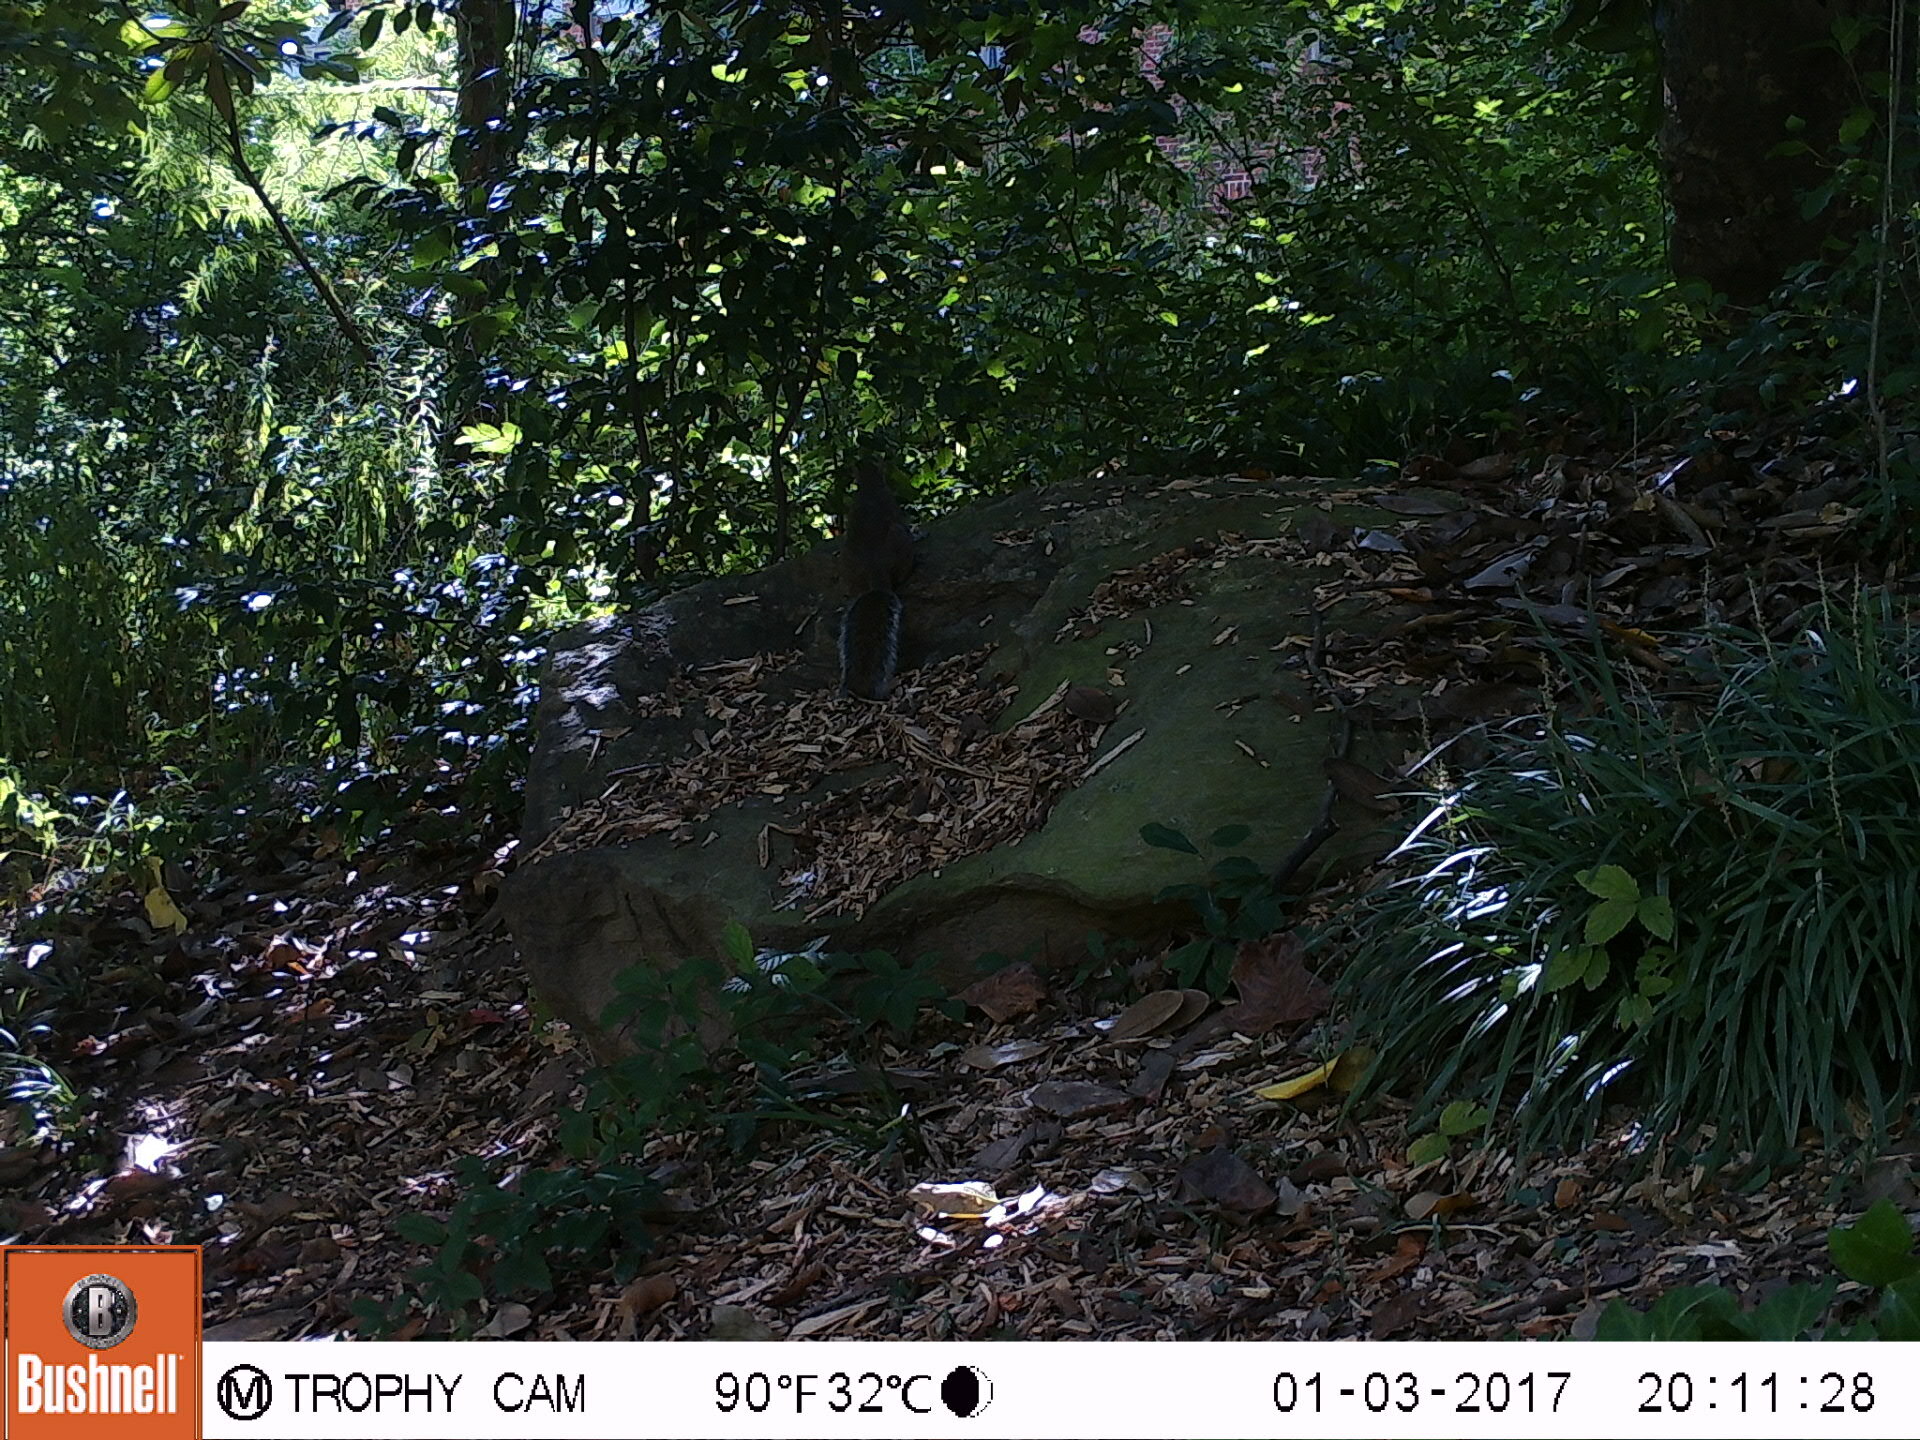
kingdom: Animalia
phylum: Chordata
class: Mammalia
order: Rodentia
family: Sciuridae
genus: Sciurus
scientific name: Sciurus carolinensis
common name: Eastern gray squirrel
